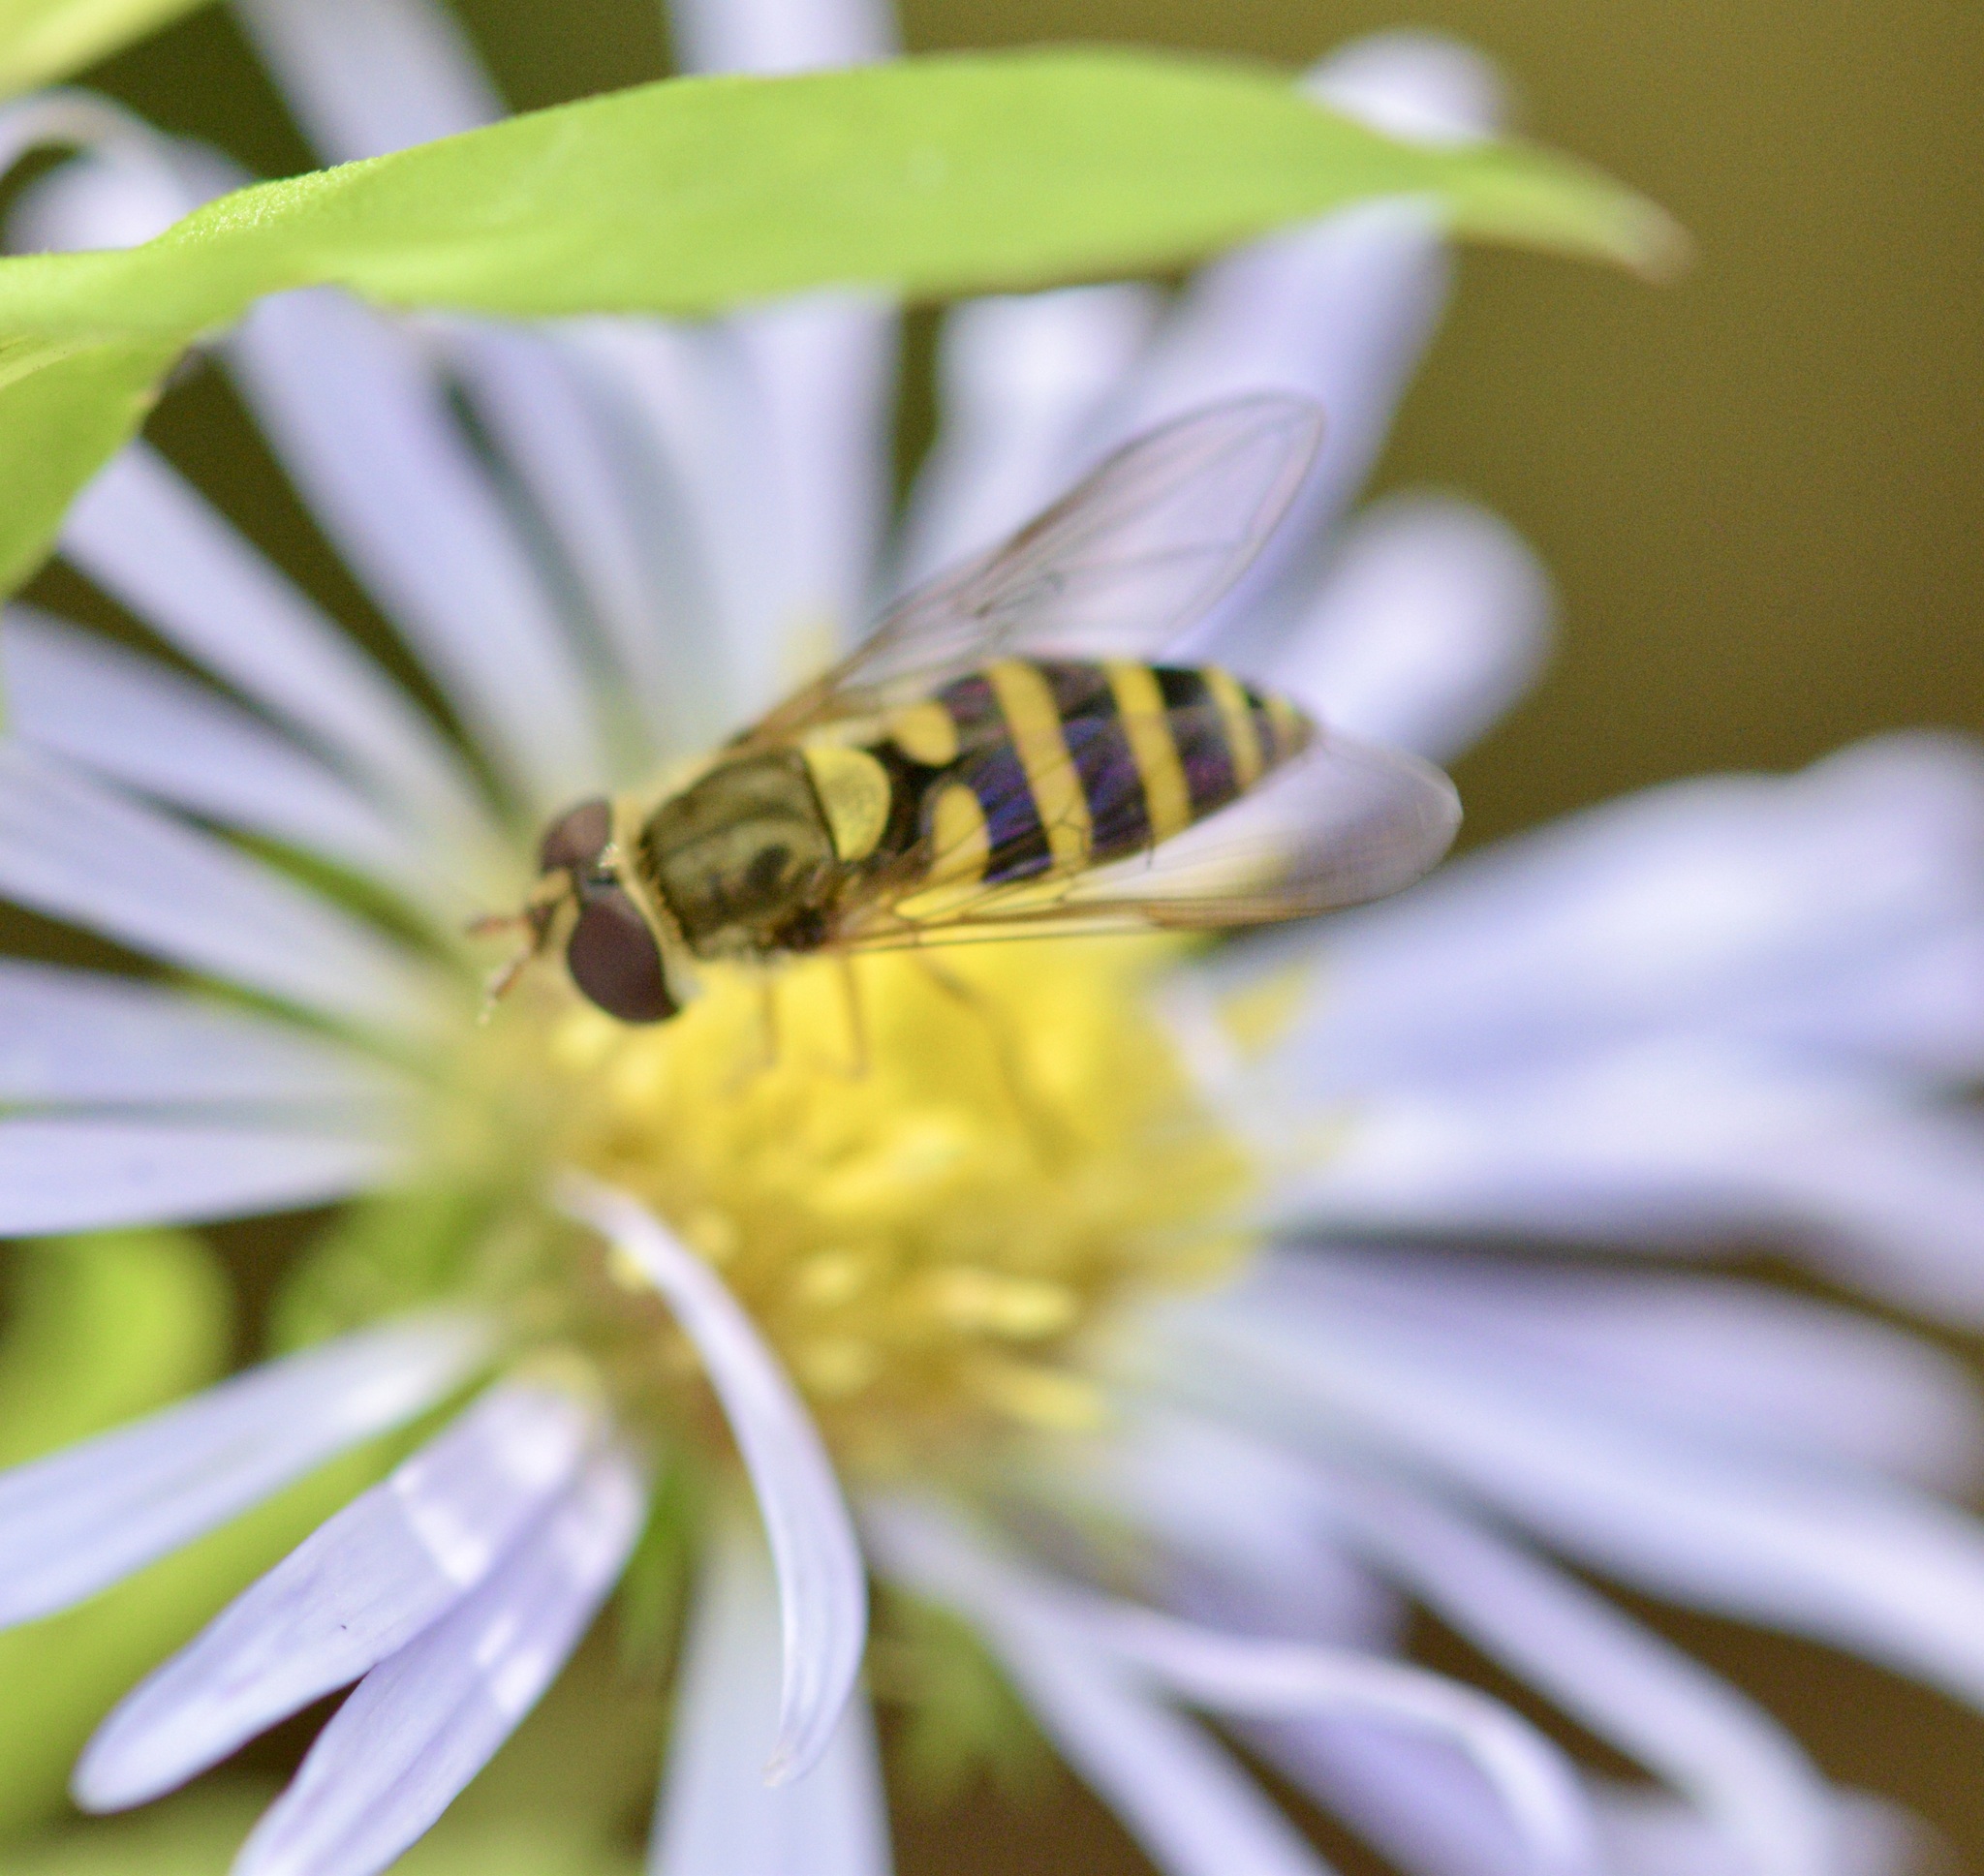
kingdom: Animalia
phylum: Arthropoda
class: Insecta
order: Diptera
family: Syrphidae
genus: Syrphus
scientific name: Syrphus rectus
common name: Yellow-legged flower fly
